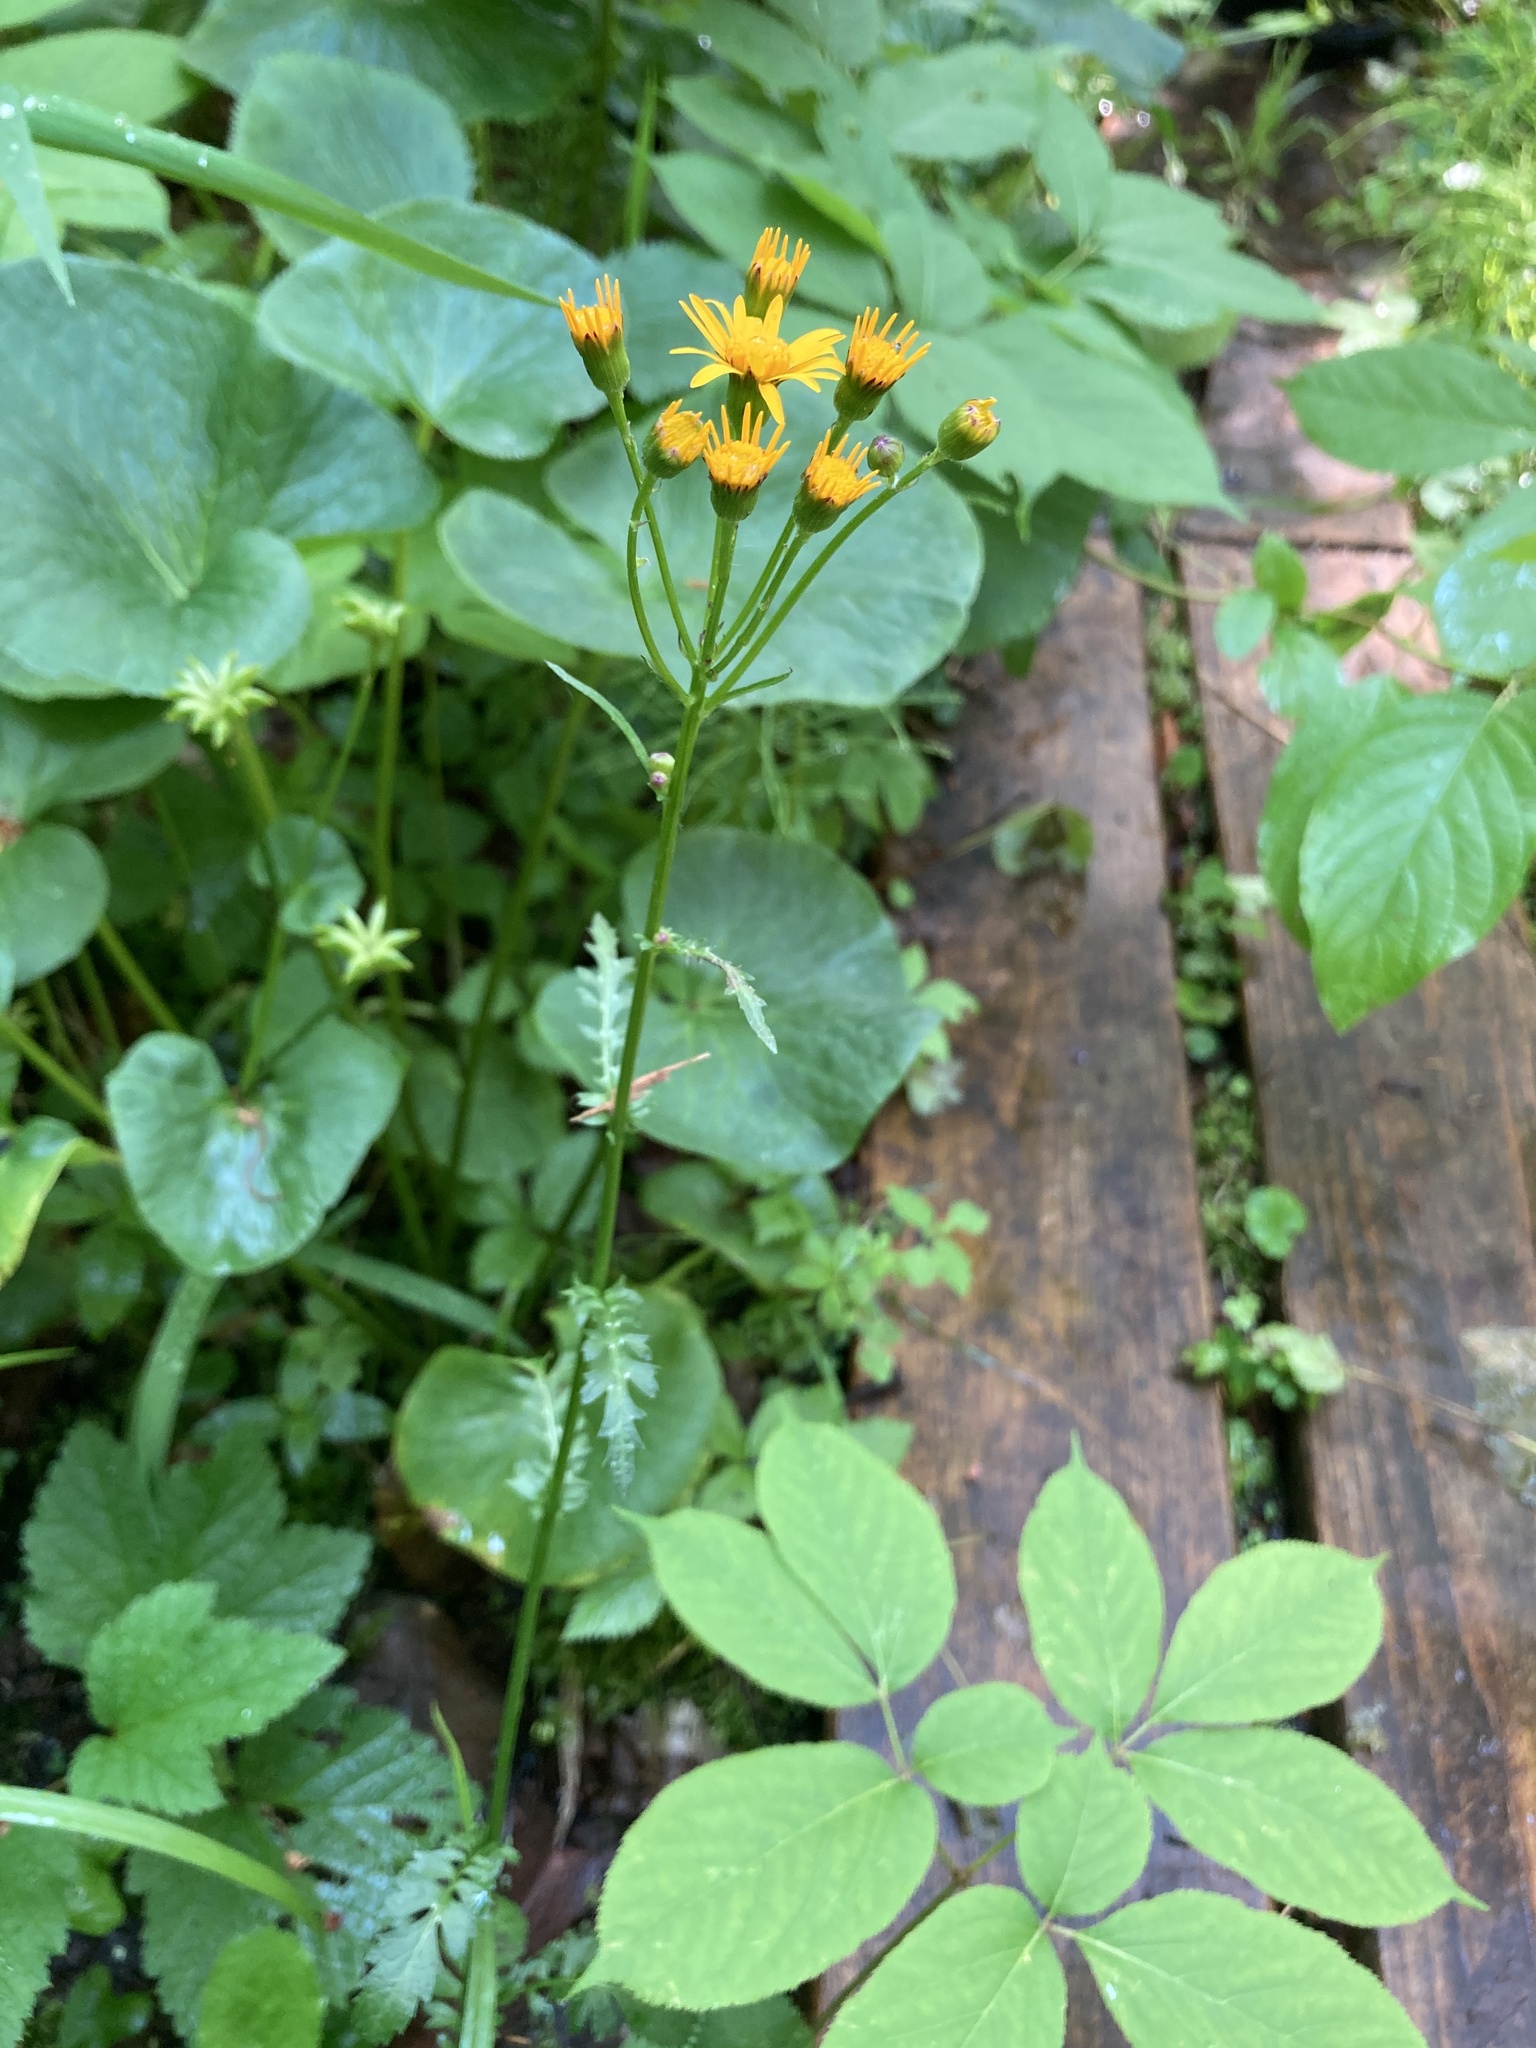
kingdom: Plantae
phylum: Tracheophyta
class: Magnoliopsida
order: Asterales
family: Asteraceae
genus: Packera
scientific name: Packera aurea
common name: Golden groundsel
